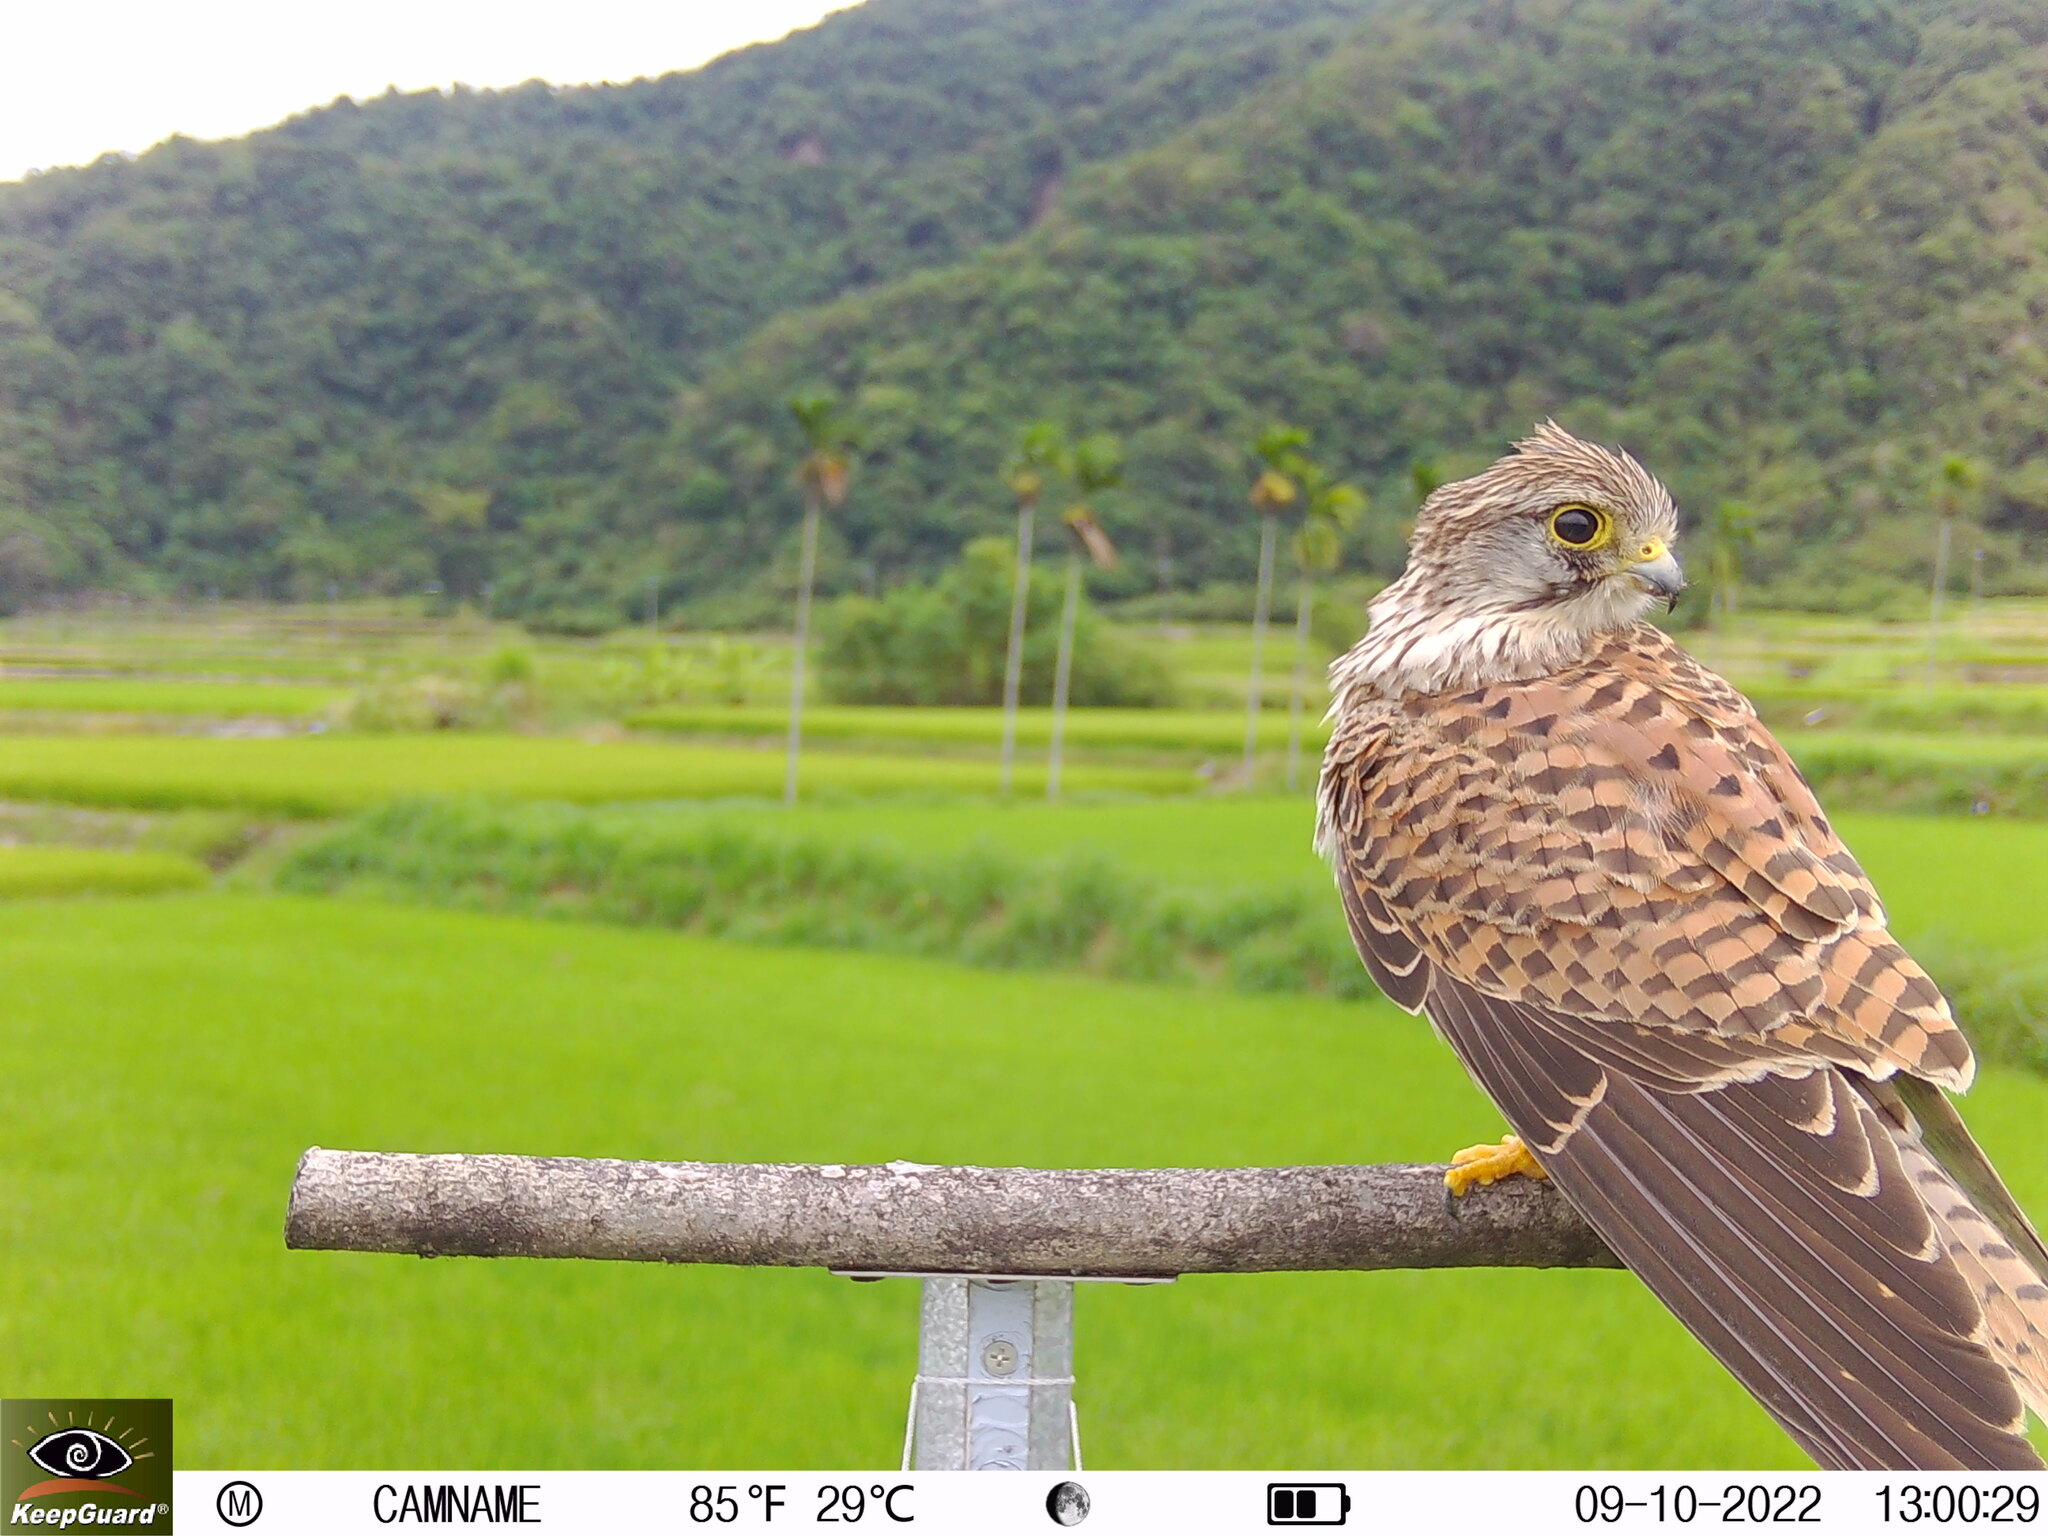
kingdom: Animalia
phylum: Chordata
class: Aves
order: Falconiformes
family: Falconidae
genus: Falco
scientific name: Falco tinnunculus
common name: Common kestrel
